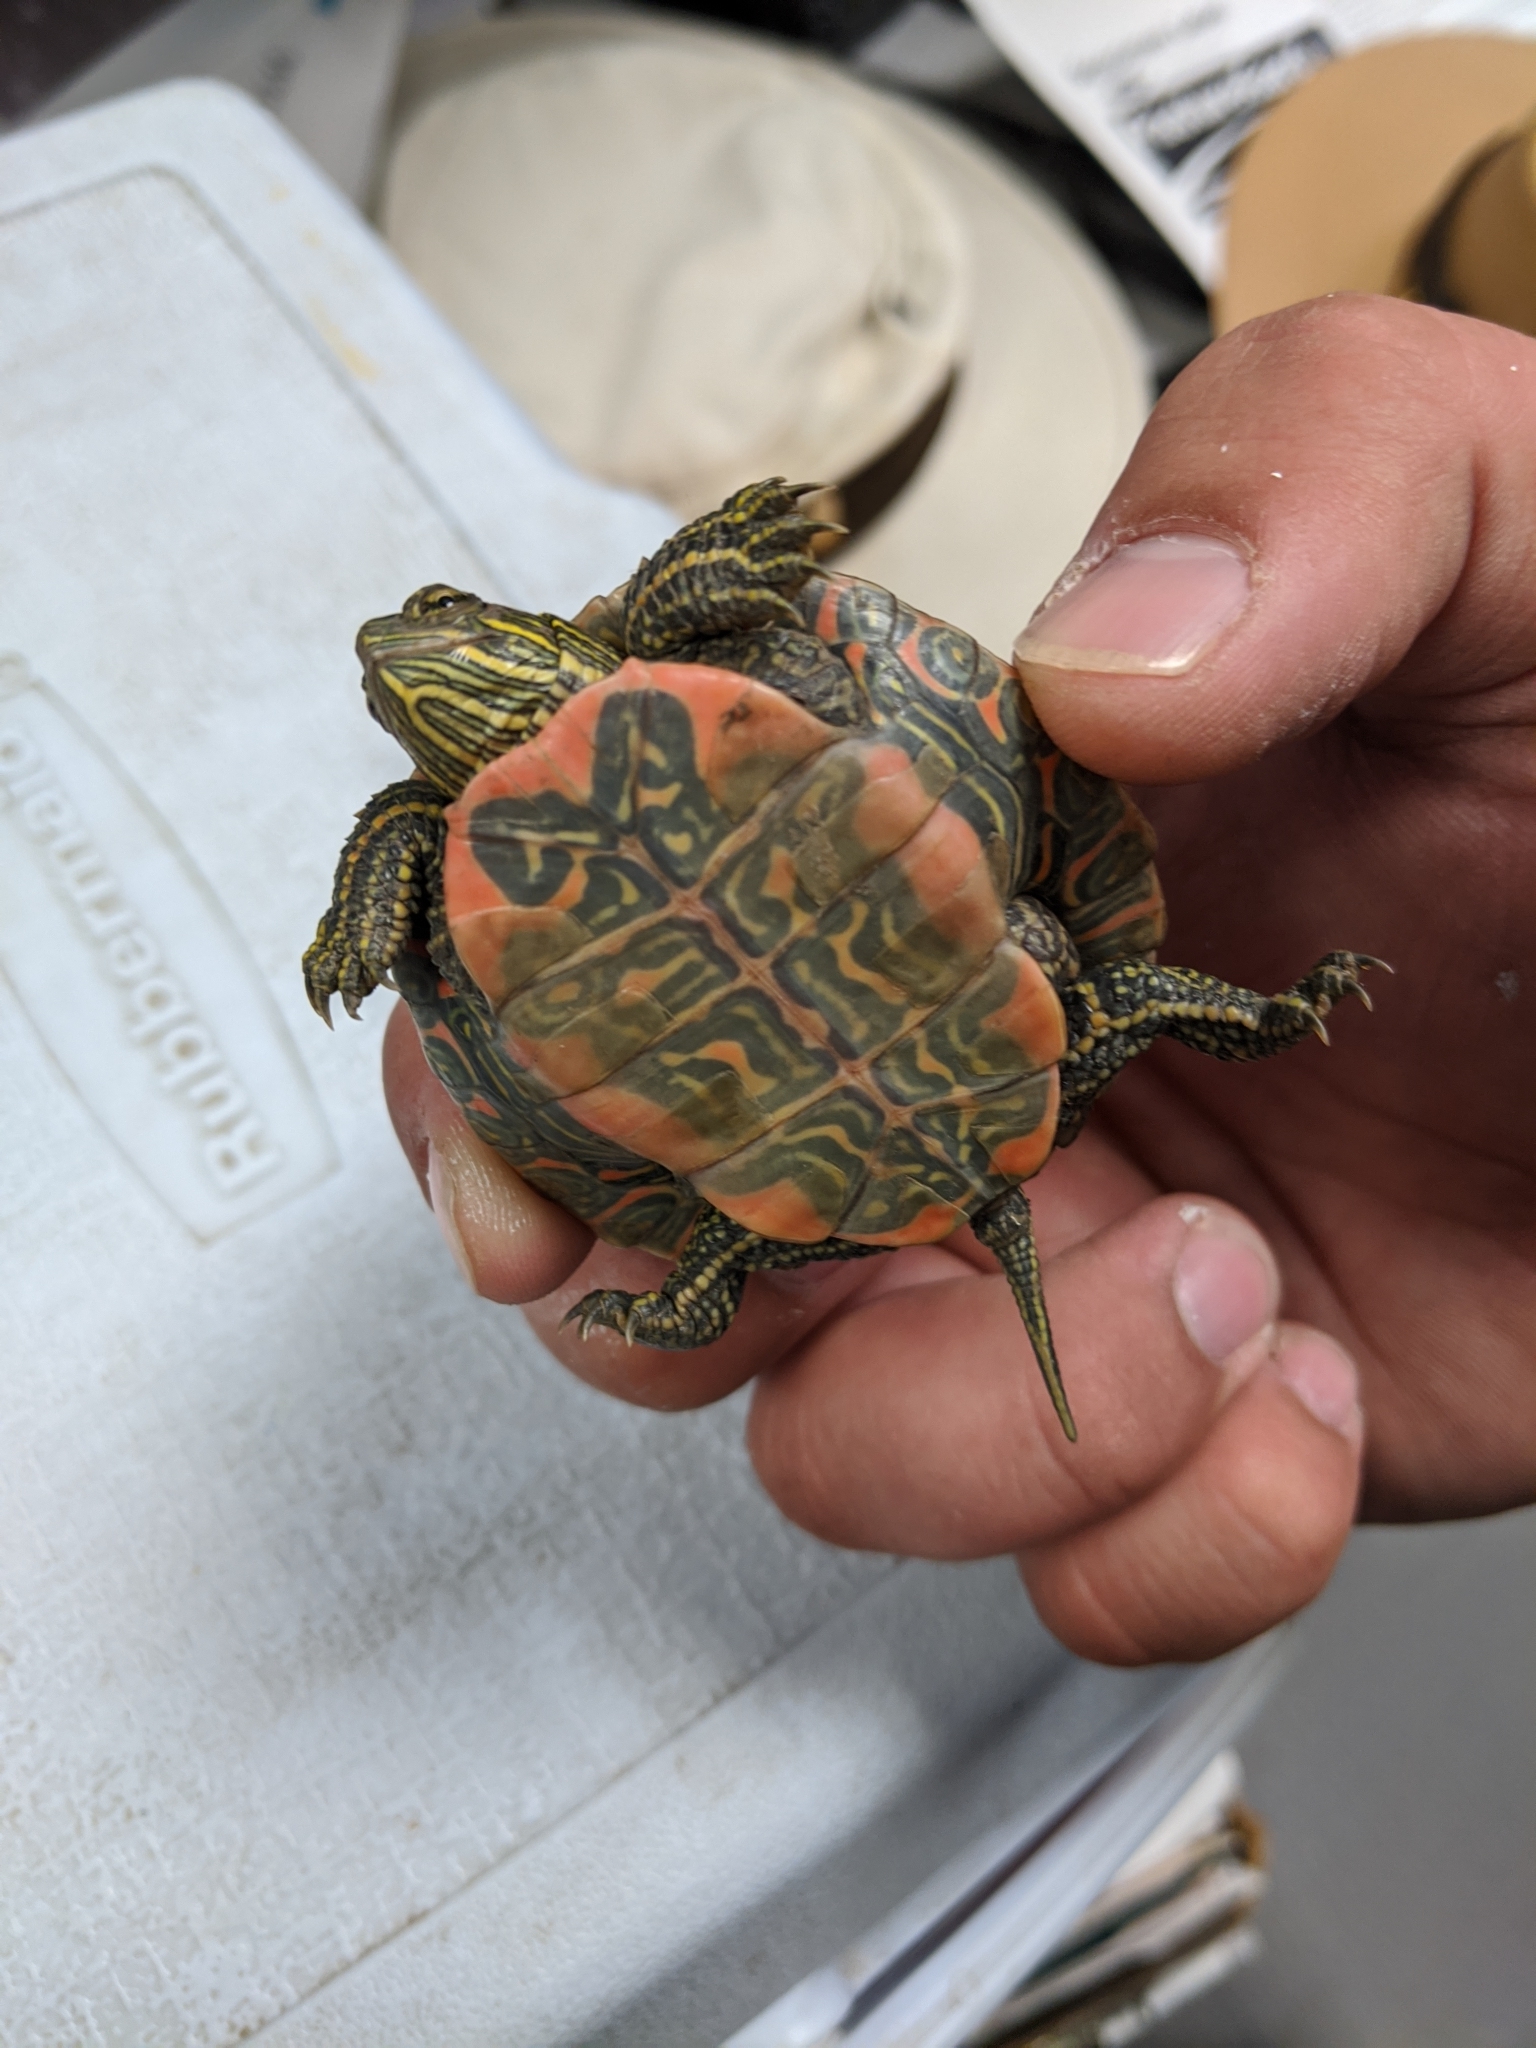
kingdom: Animalia
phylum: Chordata
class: Testudines
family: Emydidae
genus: Chrysemys
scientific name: Chrysemys picta
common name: Painted turtle
